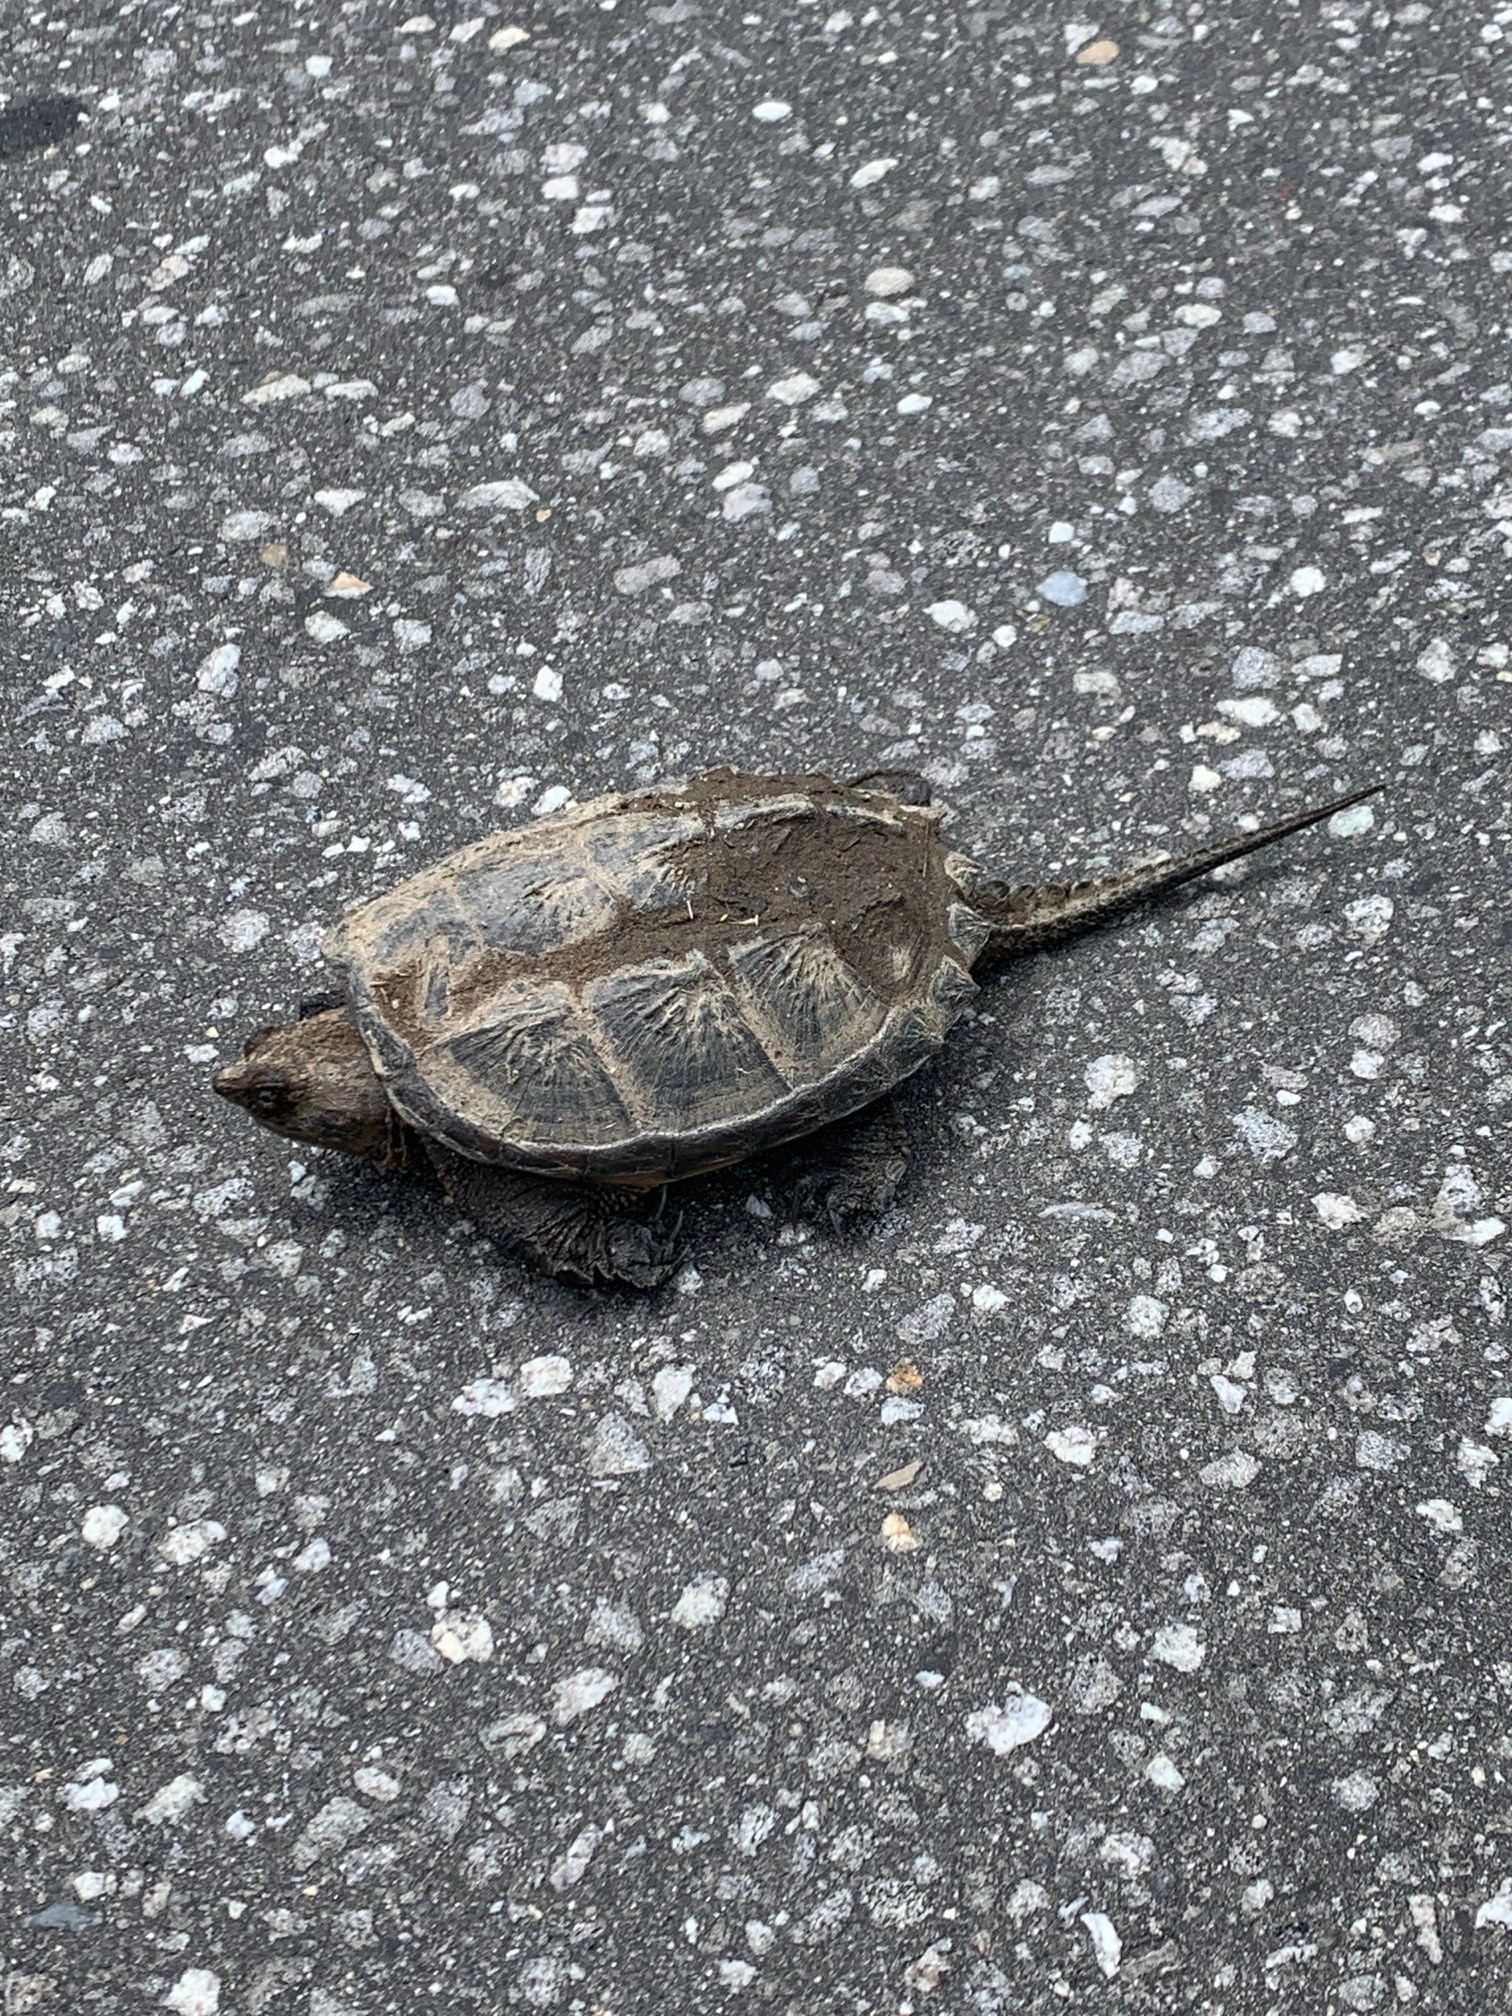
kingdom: Animalia
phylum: Chordata
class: Testudines
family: Chelydridae
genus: Chelydra
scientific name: Chelydra serpentina
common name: Common snapping turtle
